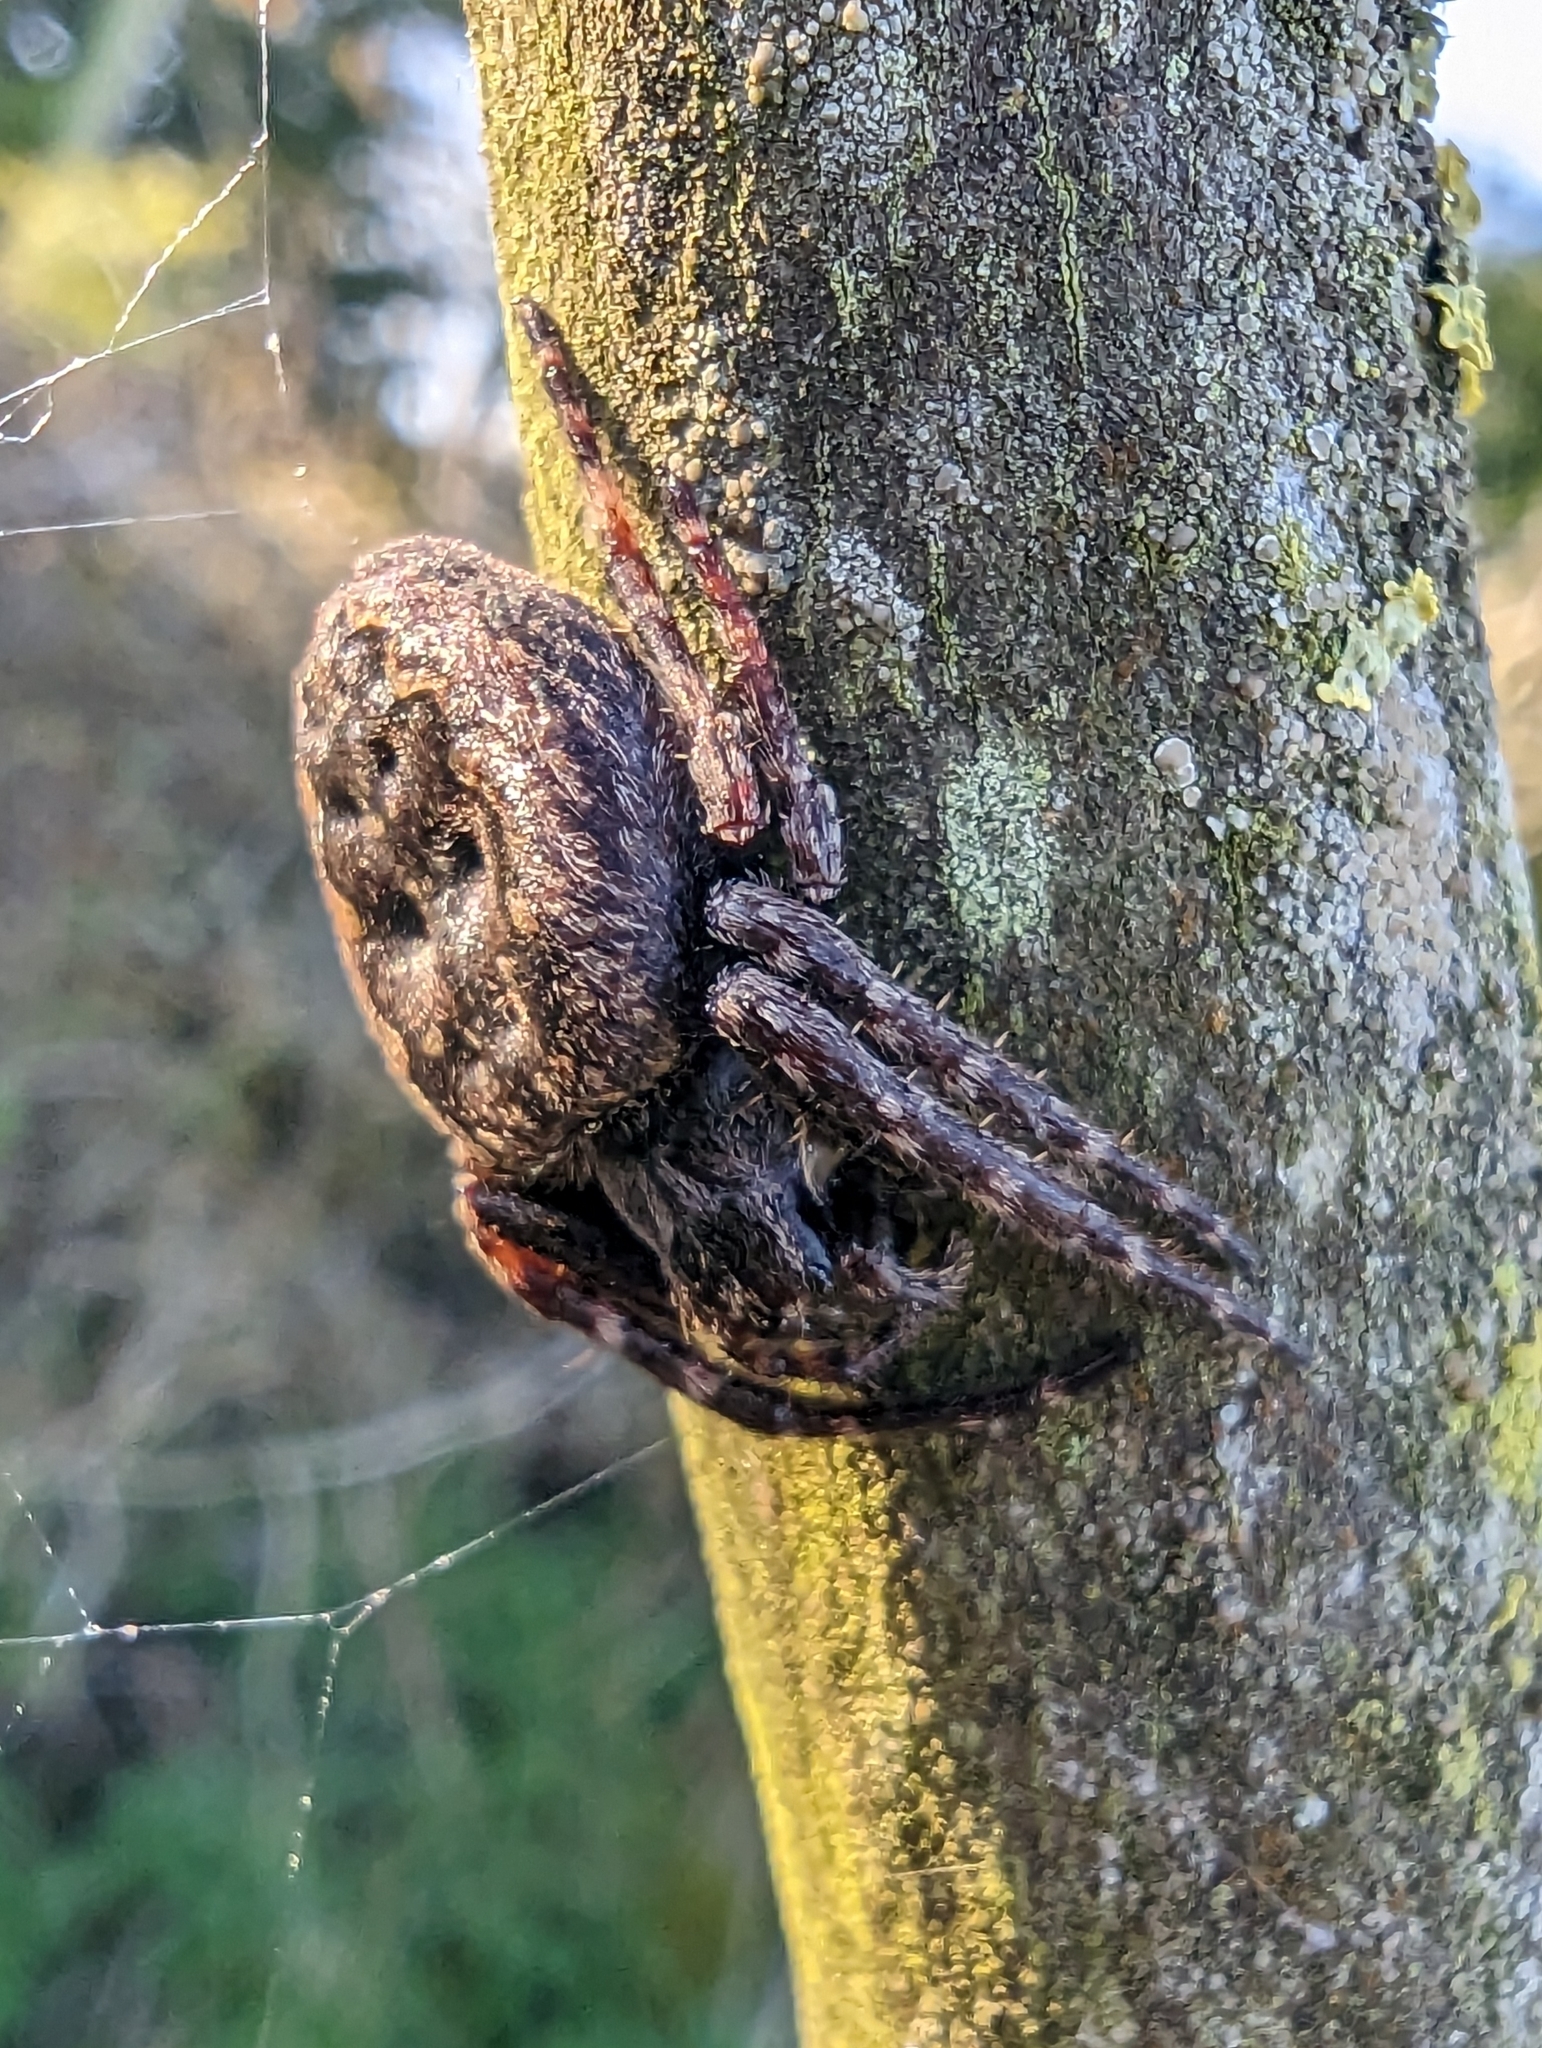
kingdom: Animalia
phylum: Arthropoda
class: Arachnida
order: Araneae
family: Araneidae
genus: Nuctenea
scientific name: Nuctenea umbratica
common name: Toad spider
